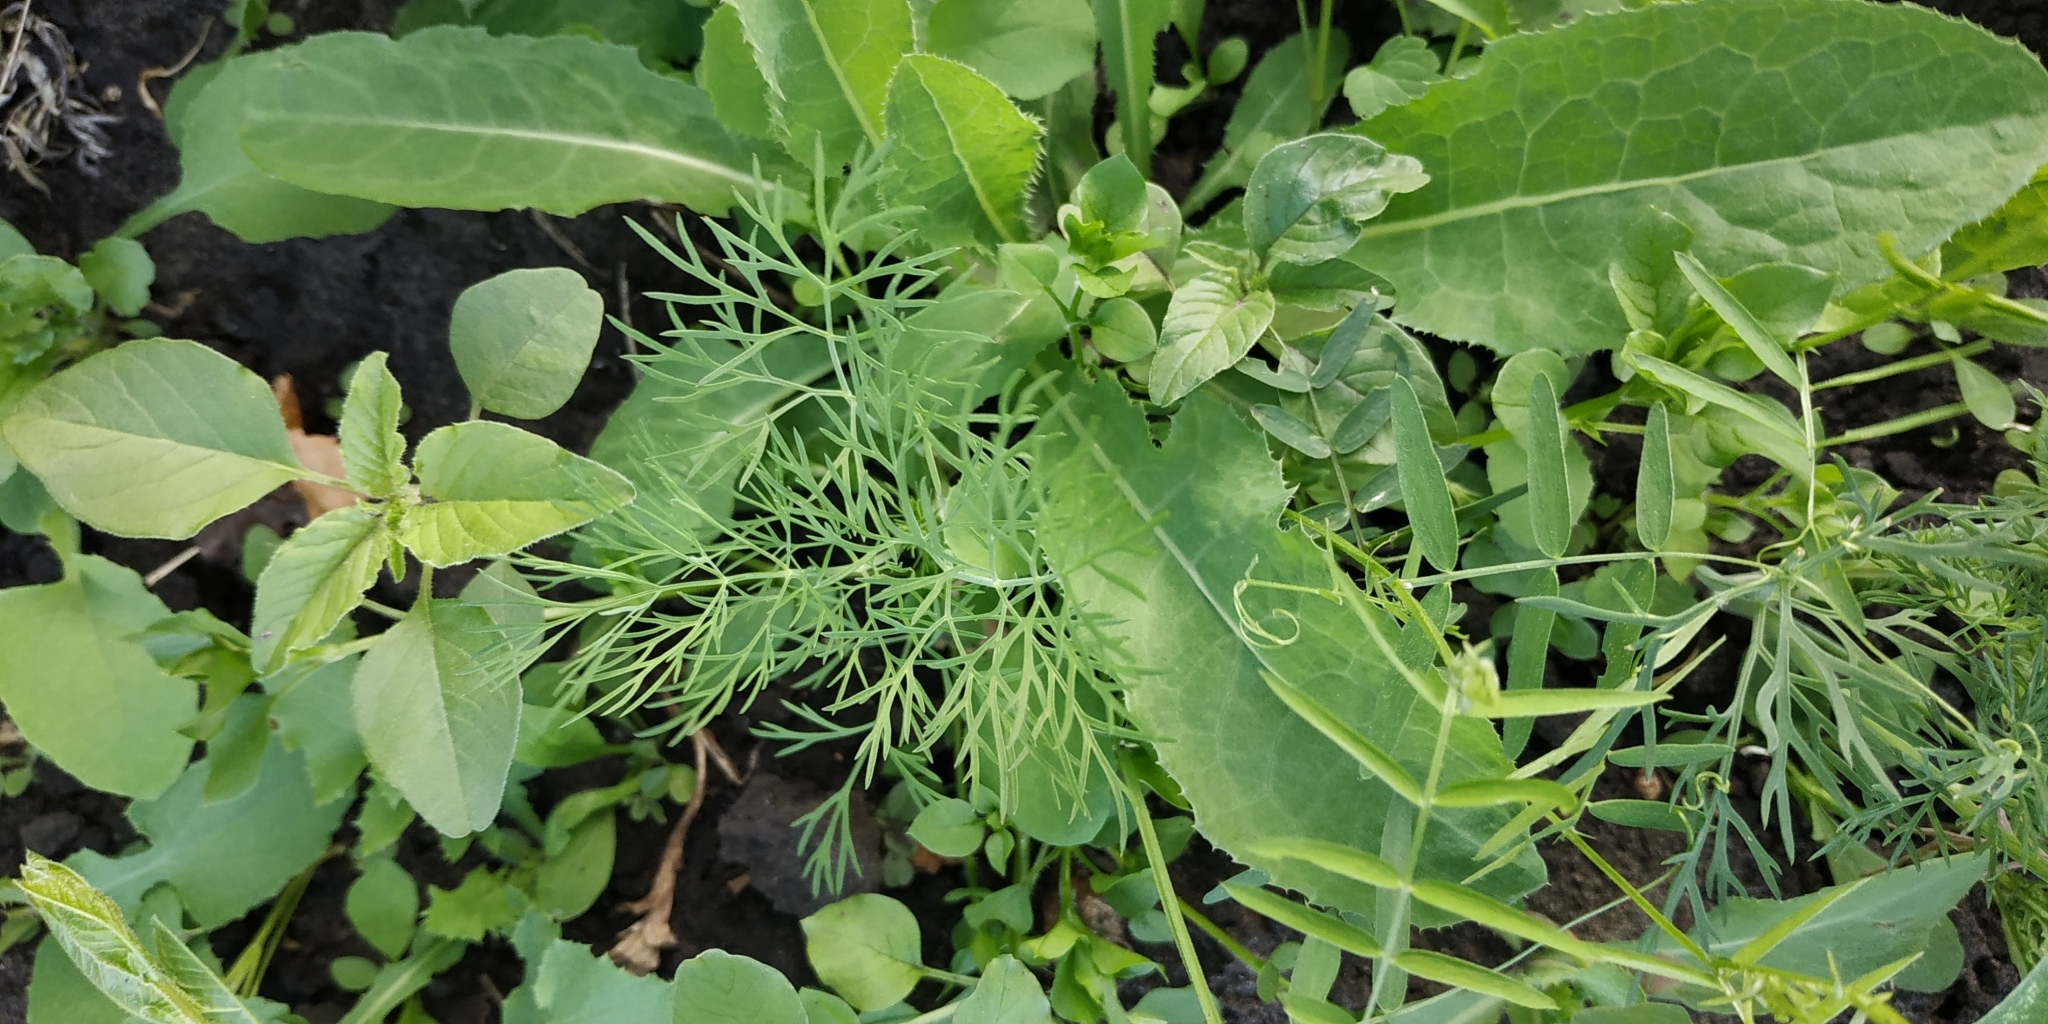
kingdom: Plantae
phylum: Tracheophyta
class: Magnoliopsida
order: Apiales
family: Apiaceae
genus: Anethum
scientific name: Anethum graveolens
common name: Dill
